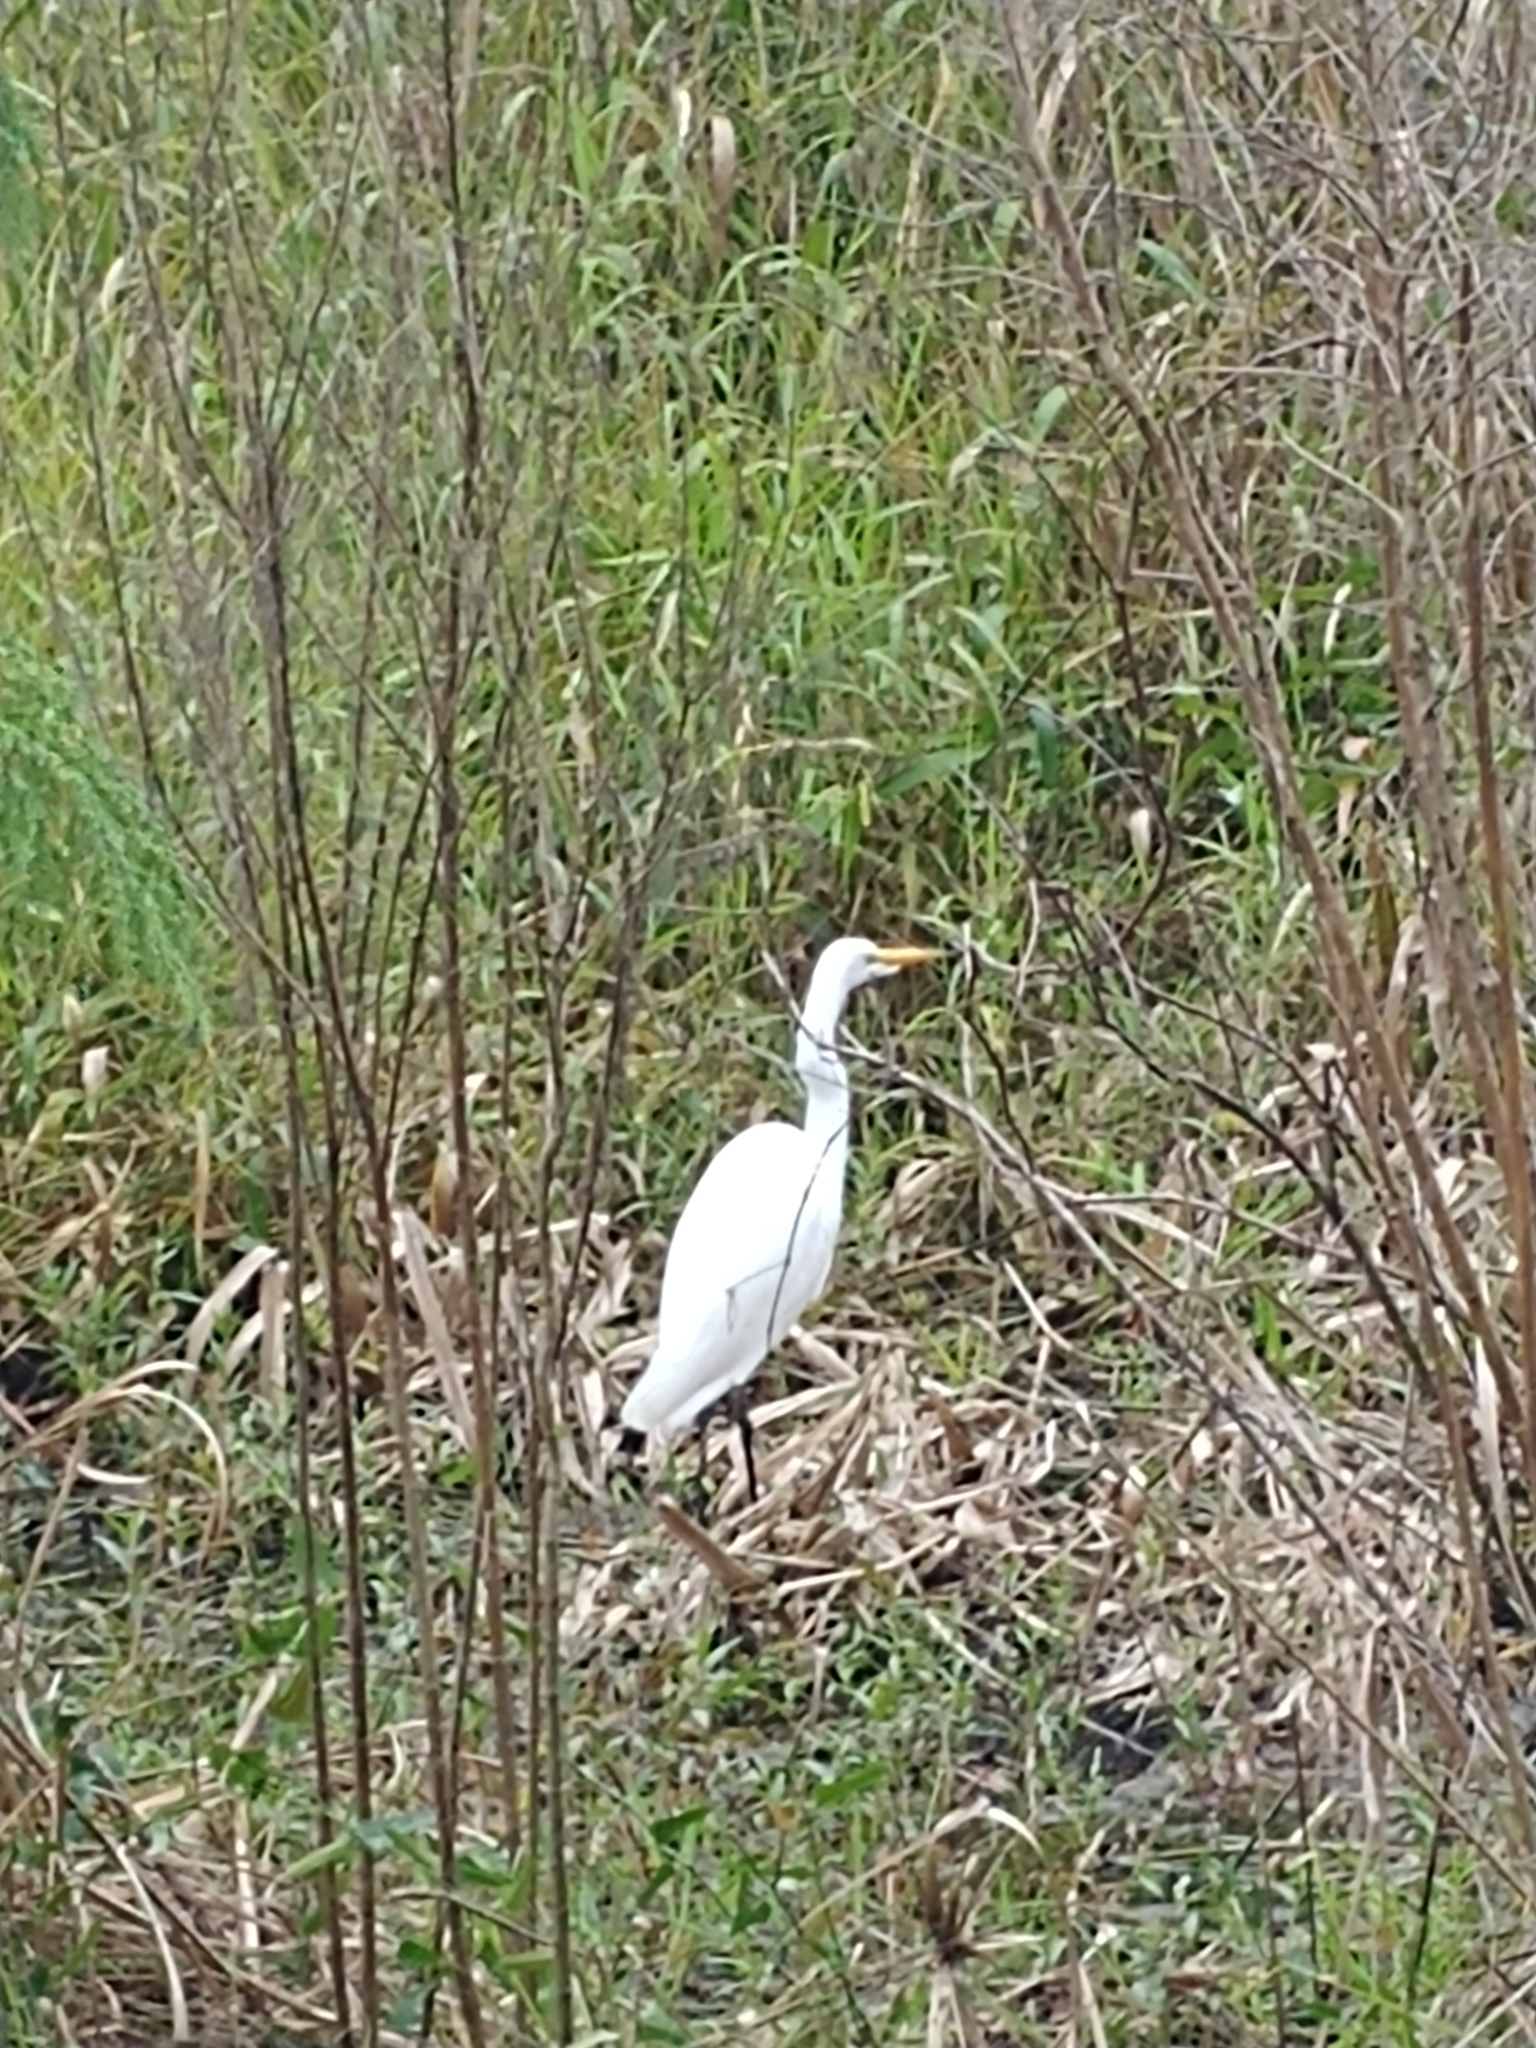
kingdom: Animalia
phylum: Chordata
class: Aves
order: Pelecaniformes
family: Ardeidae
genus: Ardea
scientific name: Ardea alba
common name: Great egret
